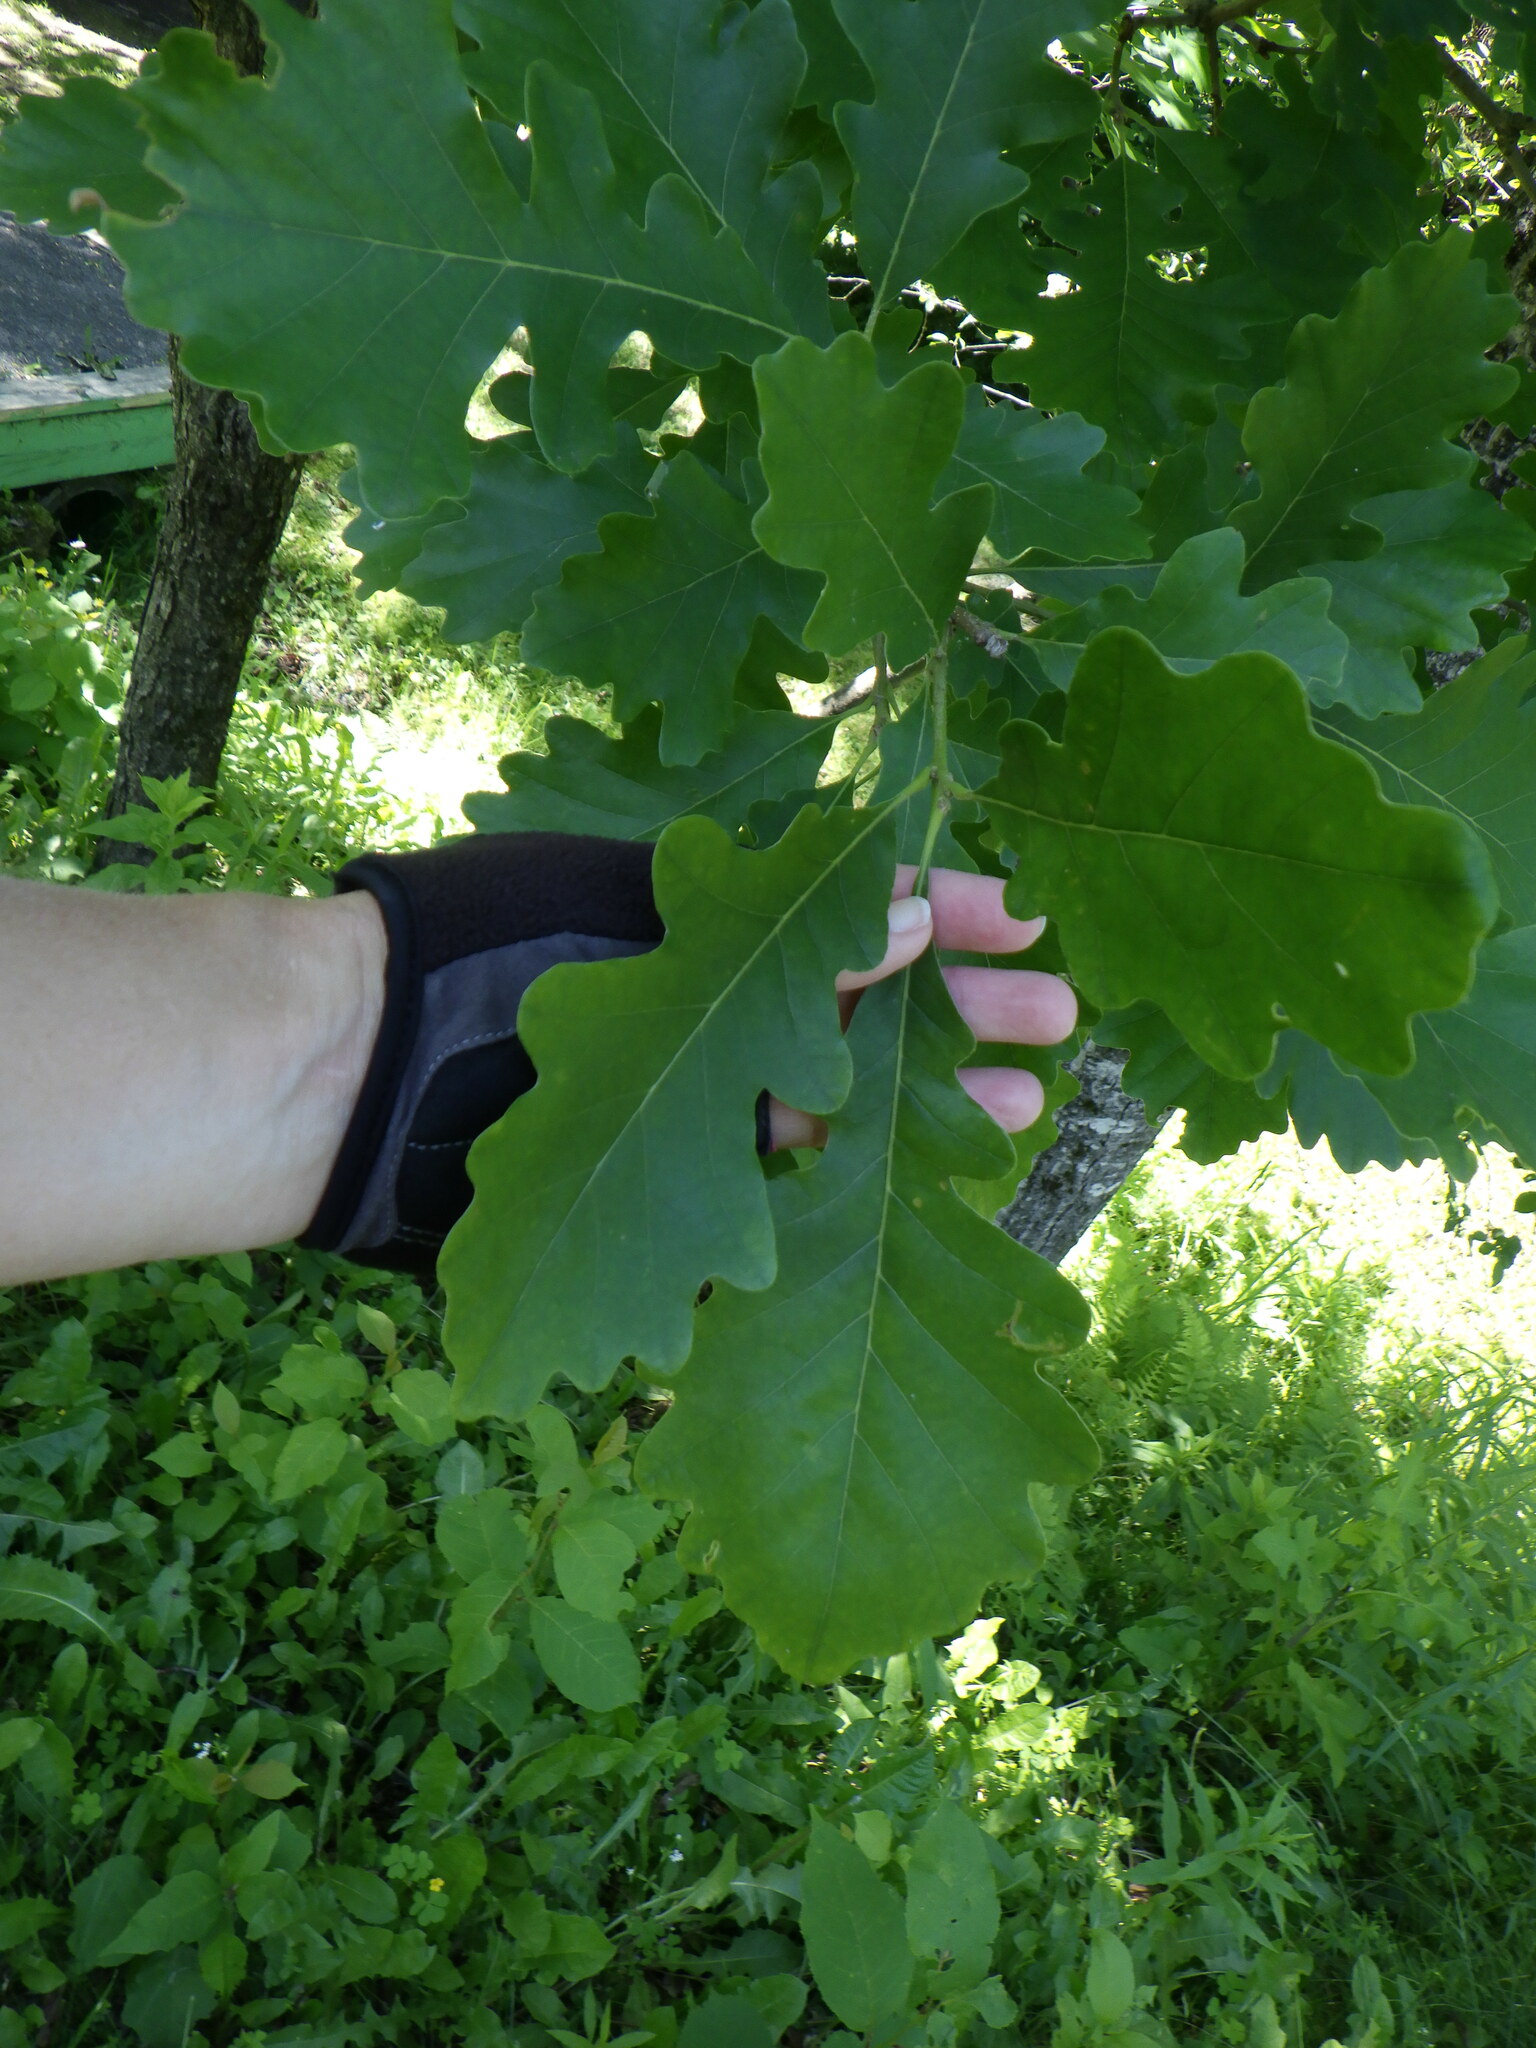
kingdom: Plantae
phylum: Tracheophyta
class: Magnoliopsida
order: Fagales
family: Fagaceae
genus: Quercus
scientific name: Quercus macrocarpa
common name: Bur oak
